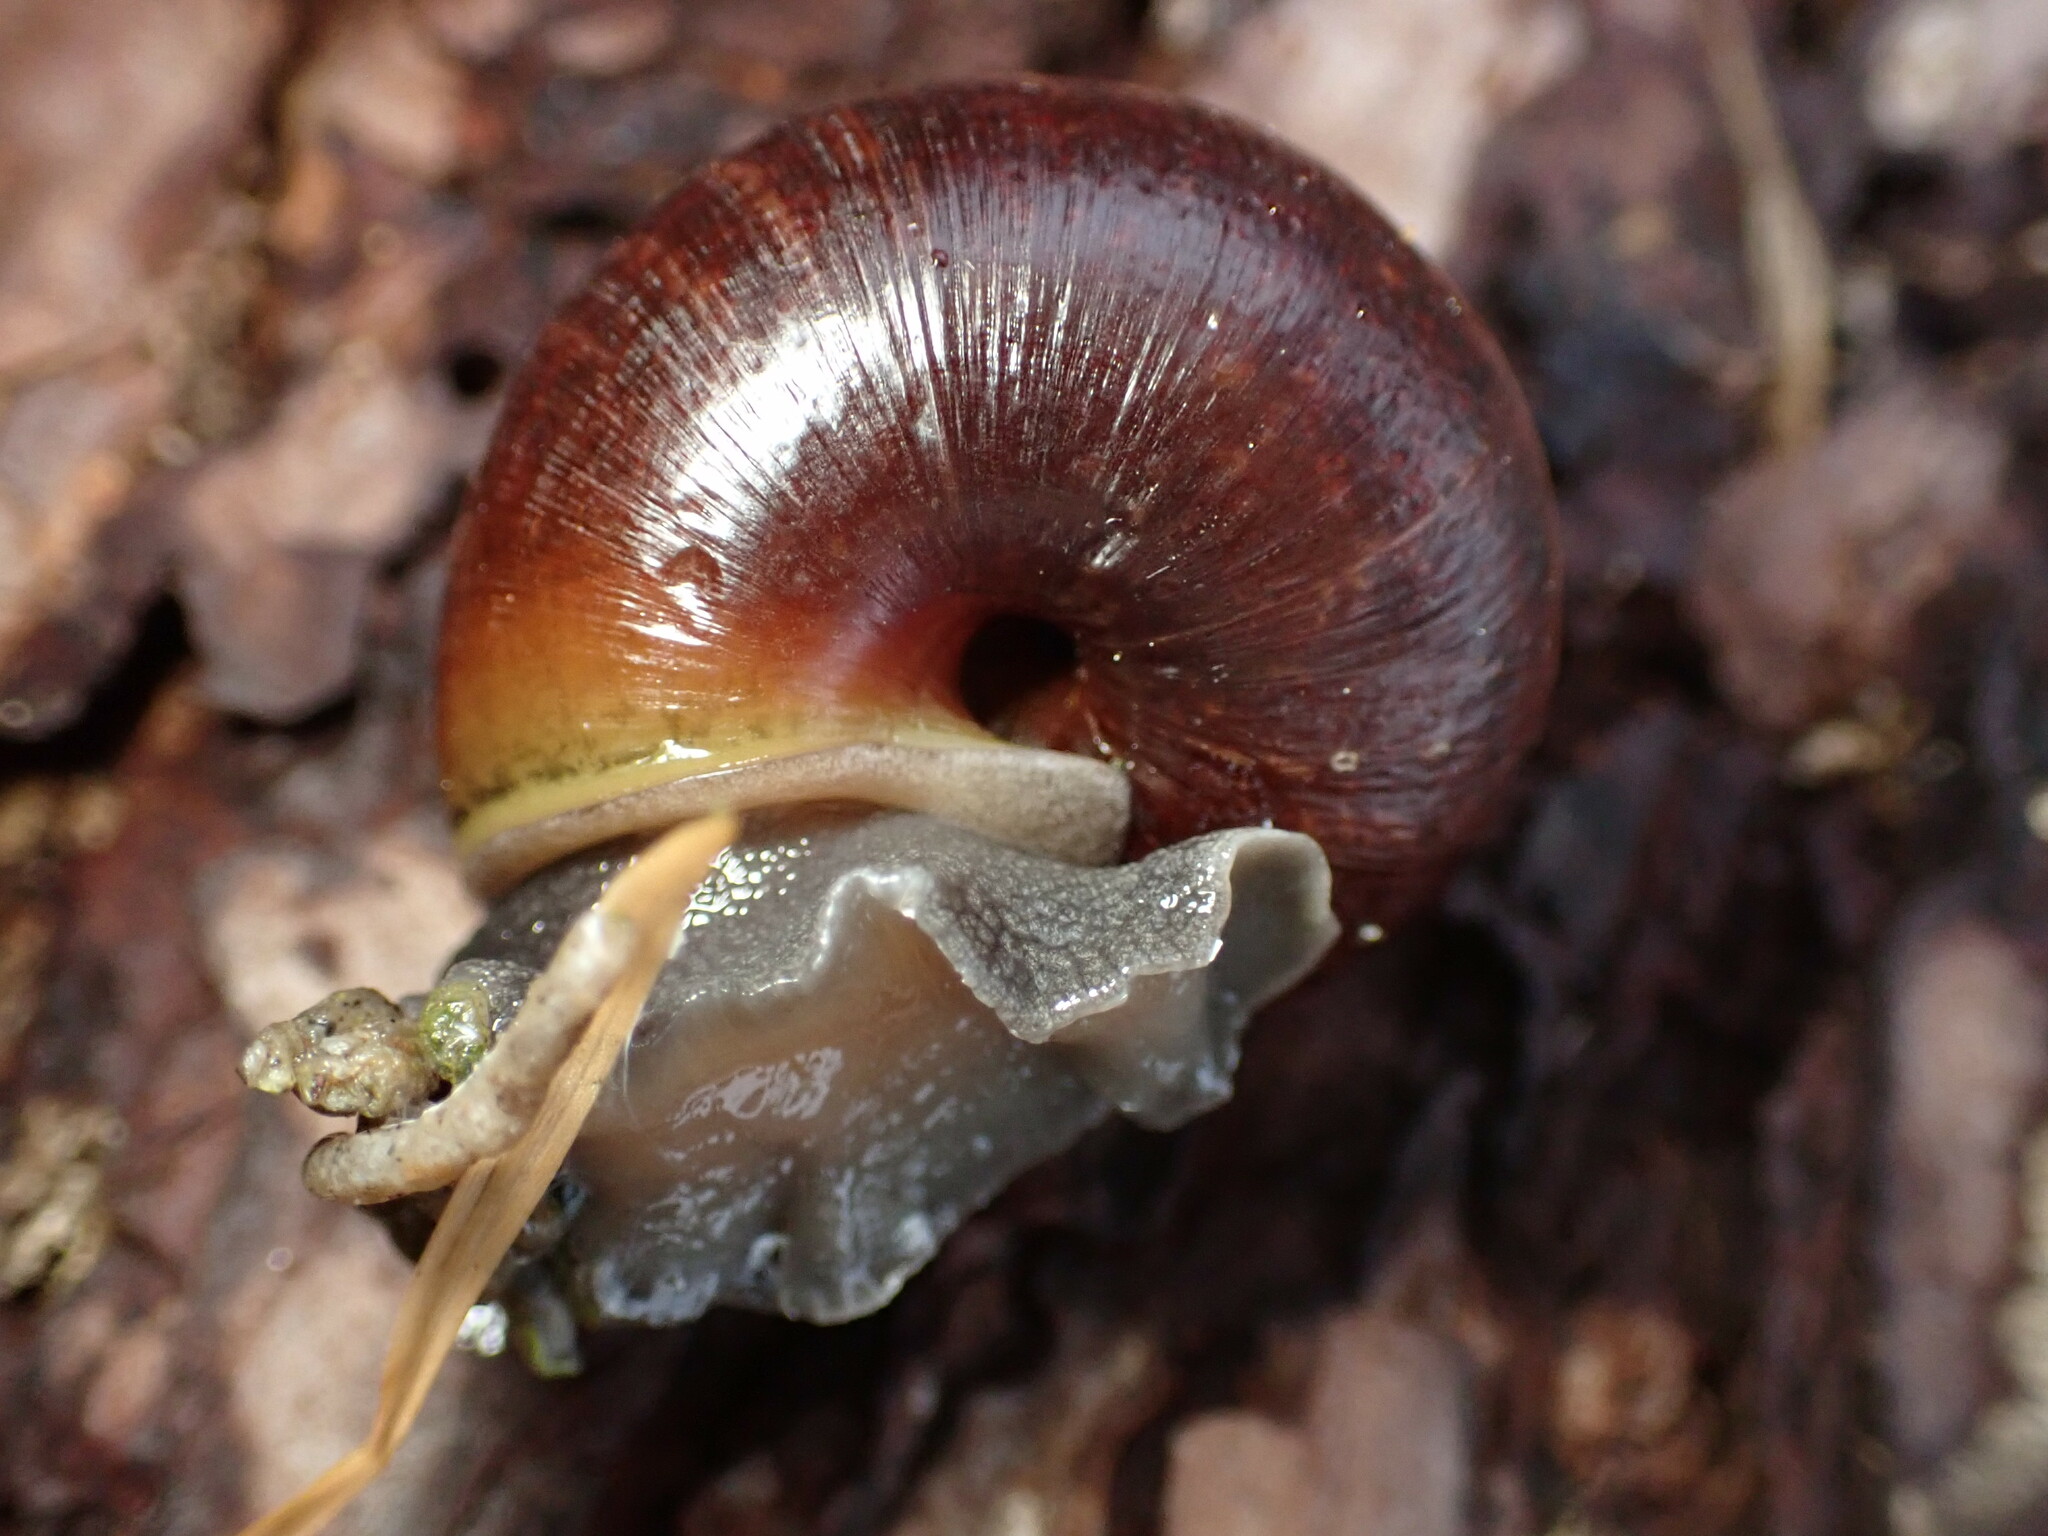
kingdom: Animalia
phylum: Mollusca
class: Gastropoda
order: Stylommatophora
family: Xanthonychidae
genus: Helminthoglypta
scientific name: Helminthoglypta arrosa
